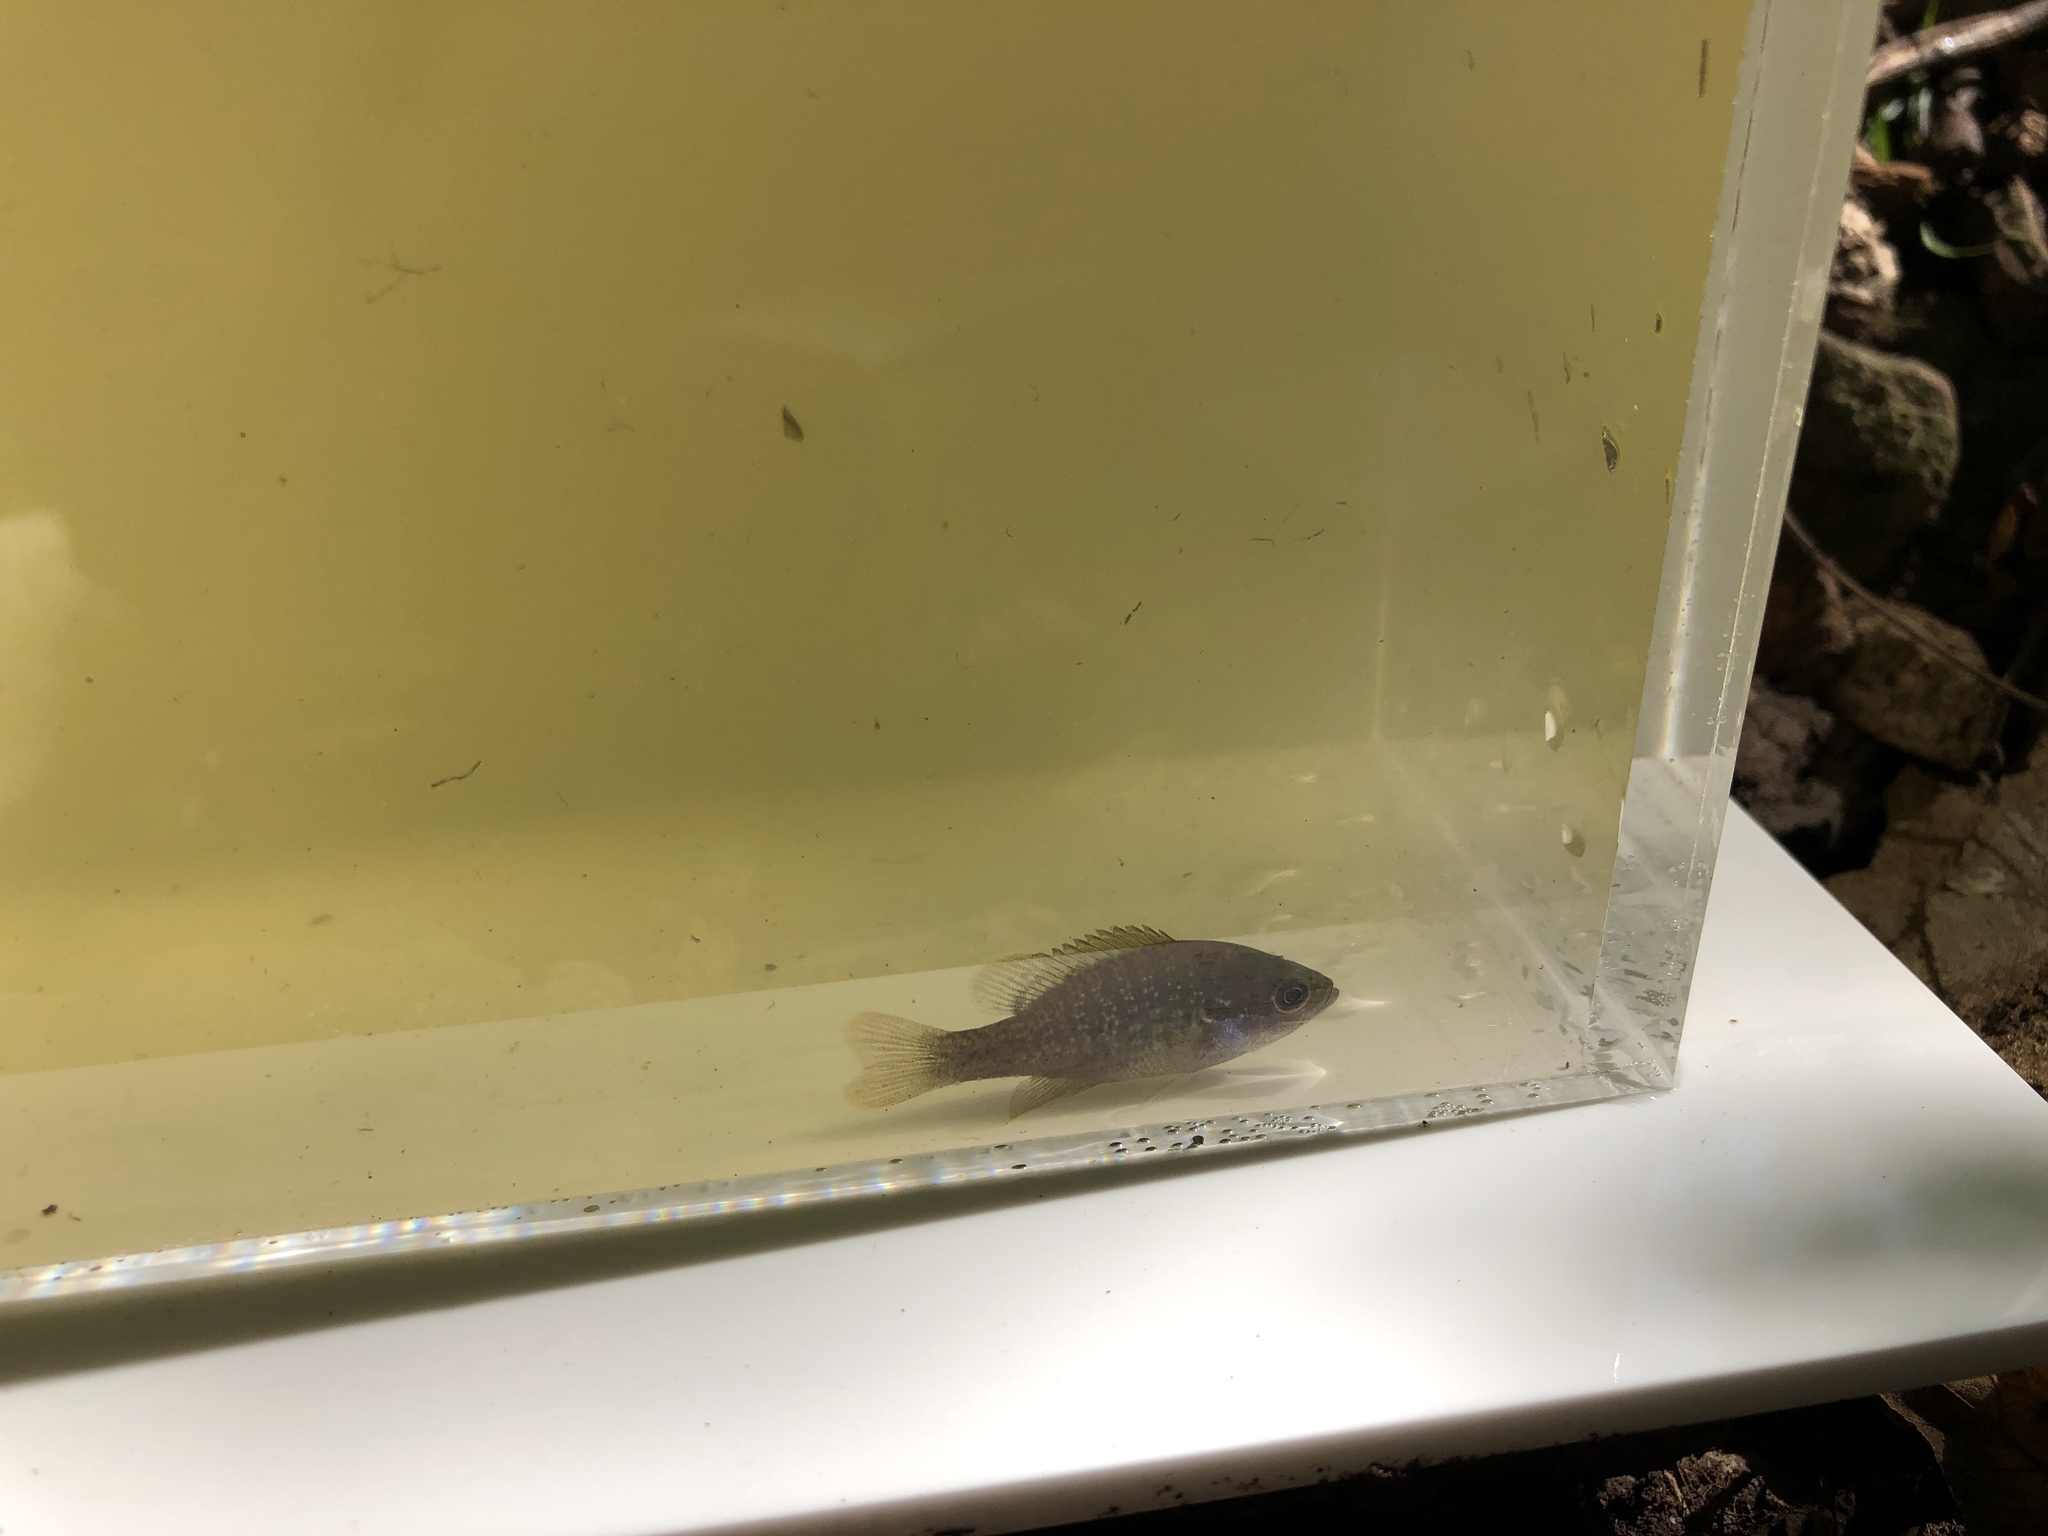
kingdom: Animalia
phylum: Chordata
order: Perciformes
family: Centrarchidae
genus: Lepomis
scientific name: Lepomis cyanellus
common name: Green sunfish
